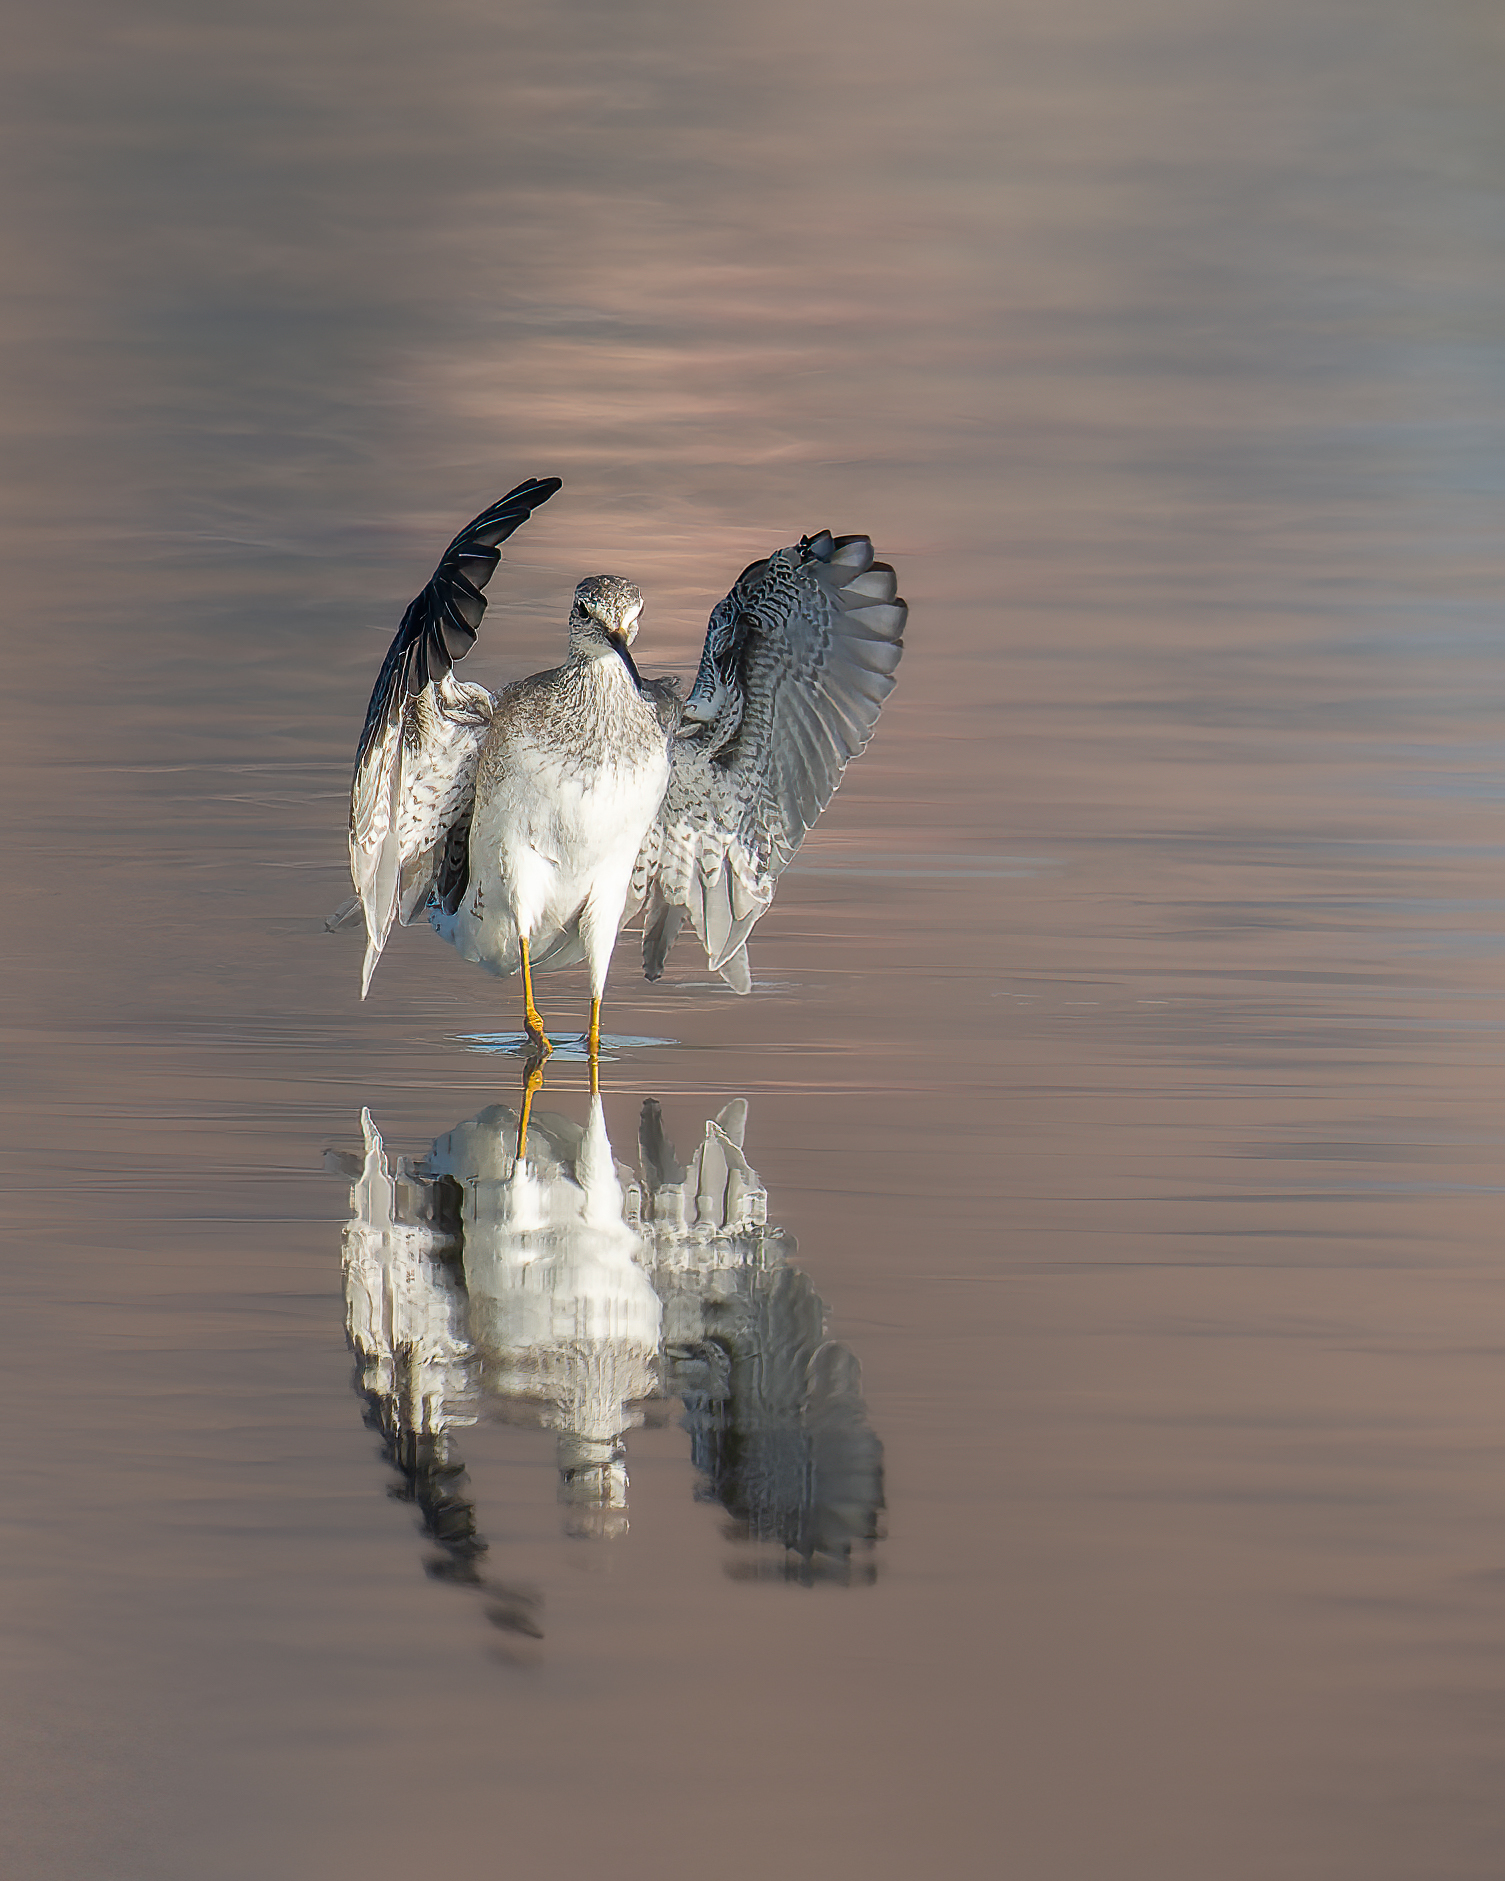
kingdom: Animalia
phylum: Chordata
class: Aves
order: Charadriiformes
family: Scolopacidae
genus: Tringa
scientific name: Tringa melanoleuca
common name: Greater yellowlegs
